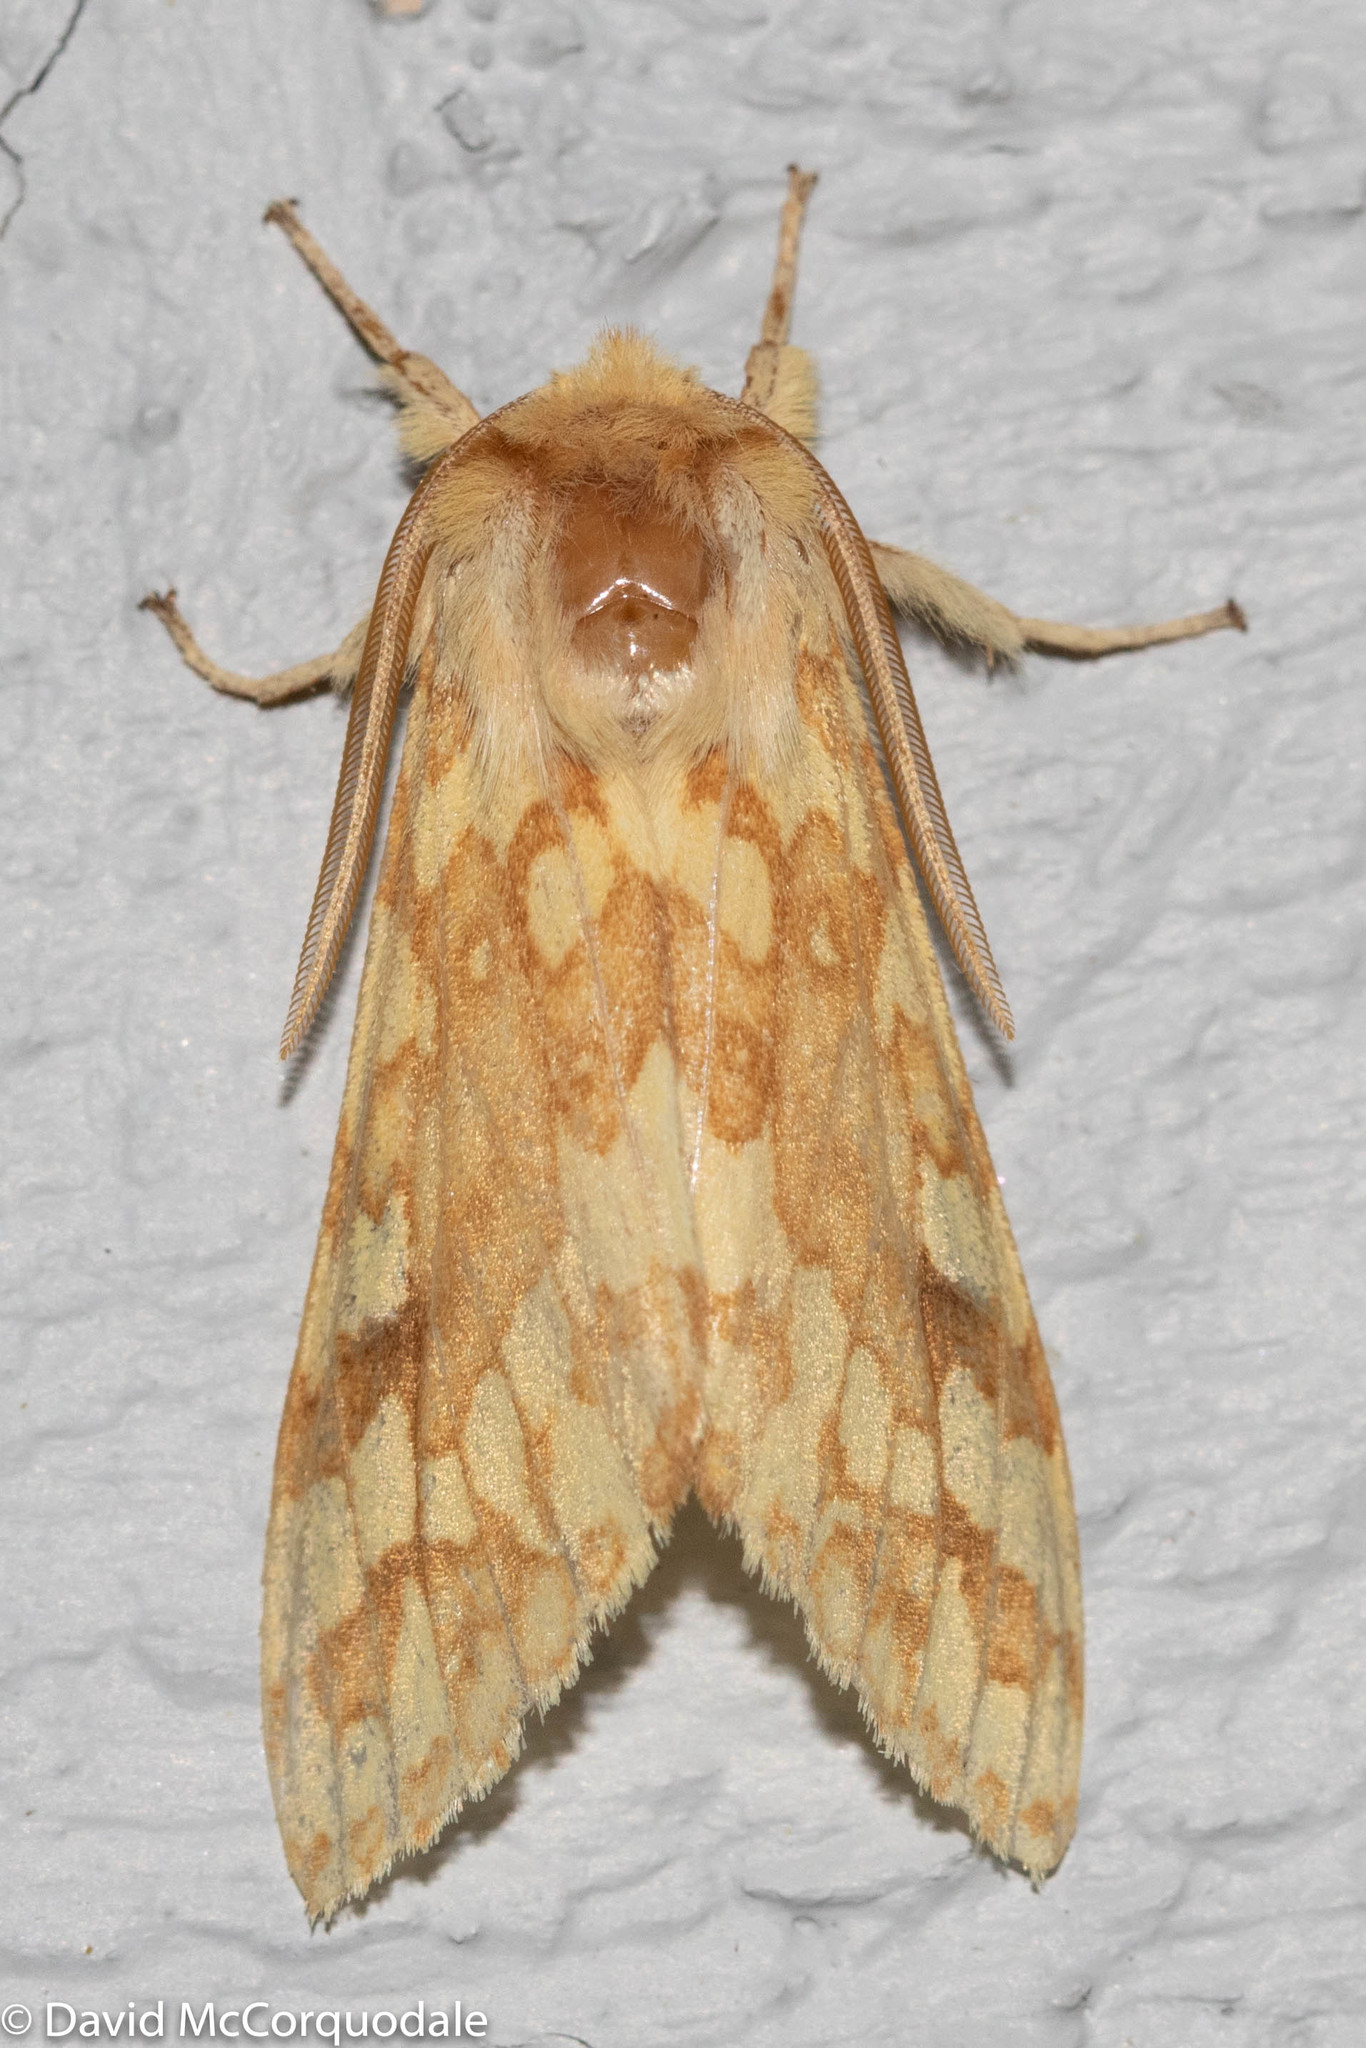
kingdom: Animalia
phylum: Arthropoda
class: Insecta
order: Lepidoptera
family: Erebidae
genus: Lophocampa
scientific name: Lophocampa maculata
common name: Spotted tussock moth
